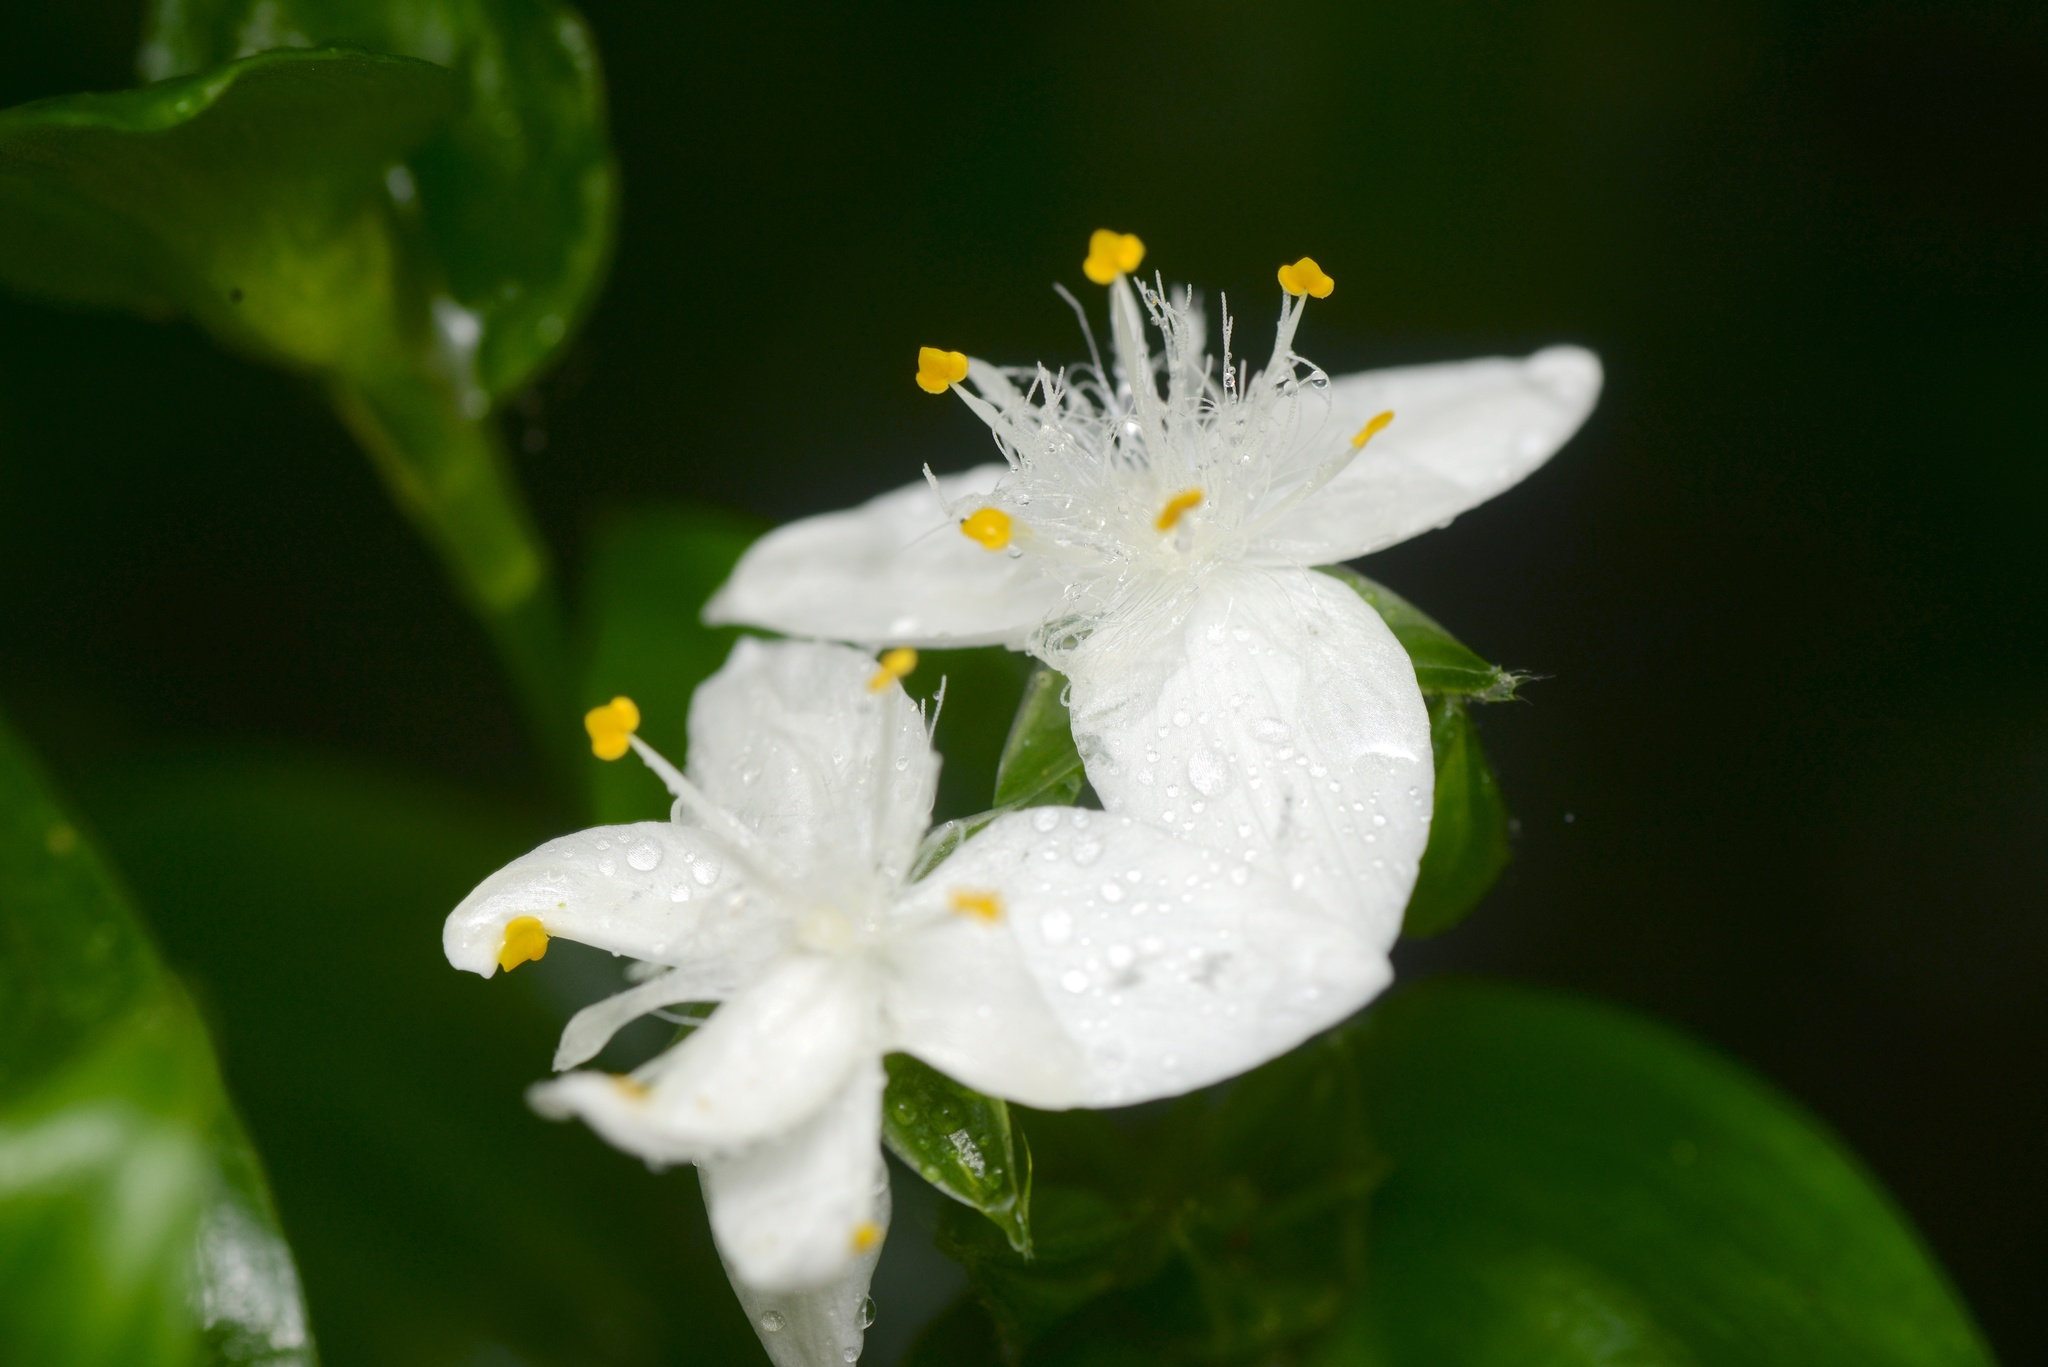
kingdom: Plantae
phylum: Tracheophyta
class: Liliopsida
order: Commelinales
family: Commelinaceae
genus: Tradescantia
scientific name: Tradescantia fluminensis
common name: Wandering-jew
